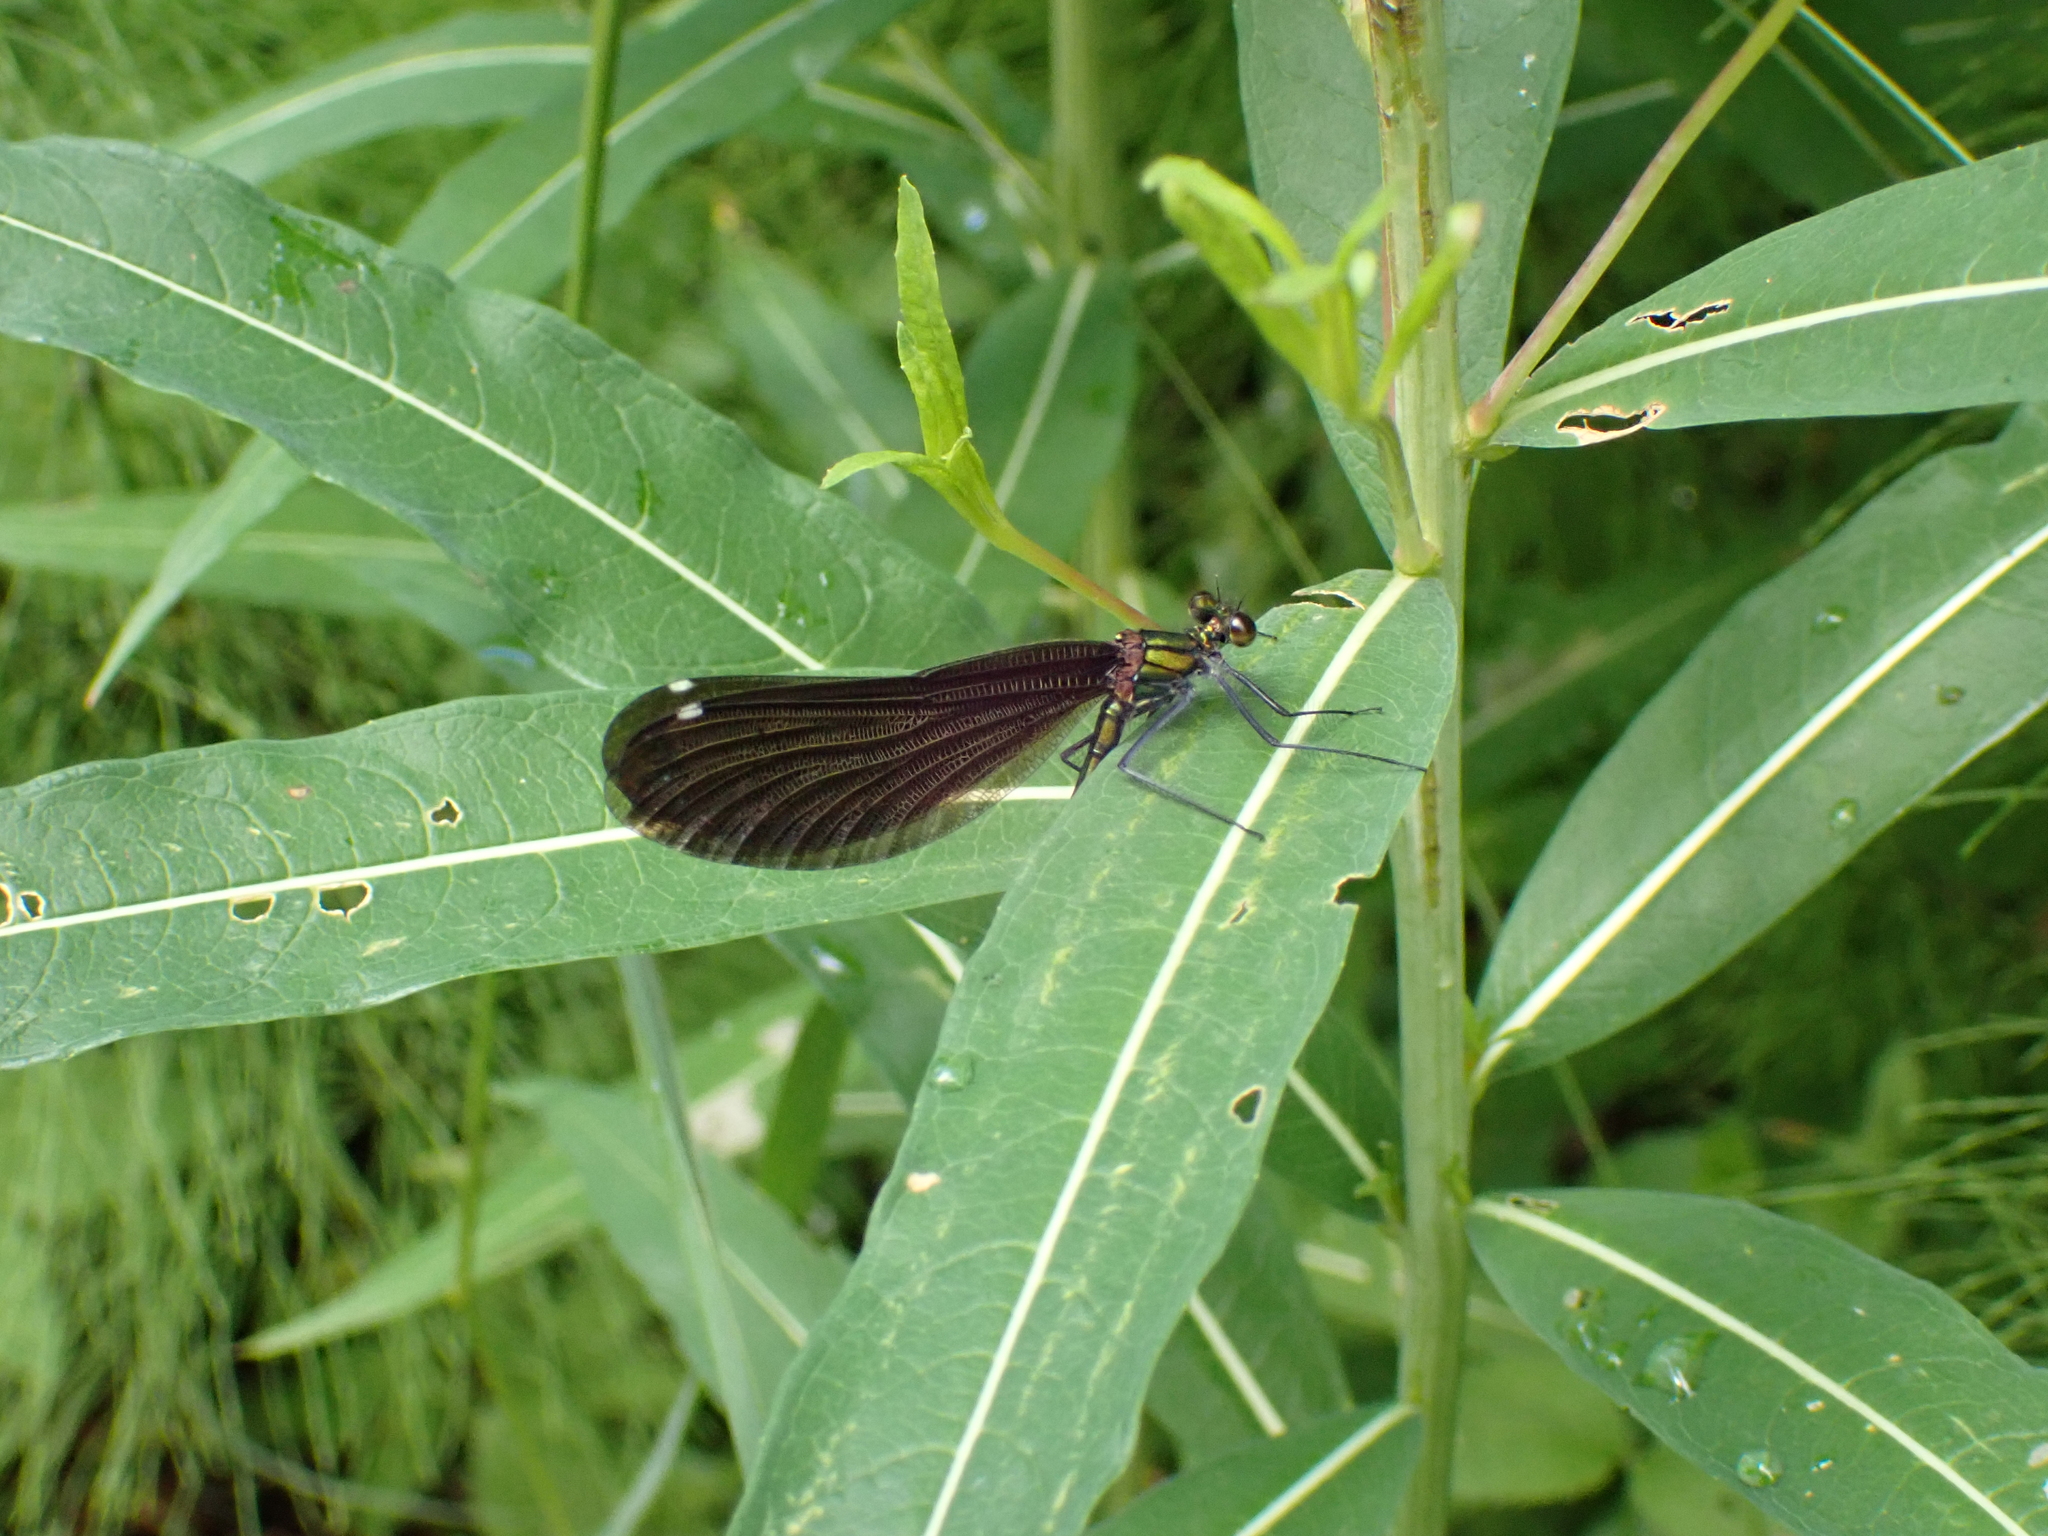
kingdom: Animalia
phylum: Arthropoda
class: Insecta
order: Odonata
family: Calopterygidae
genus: Calopteryx
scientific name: Calopteryx virgo
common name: Beautiful demoiselle
